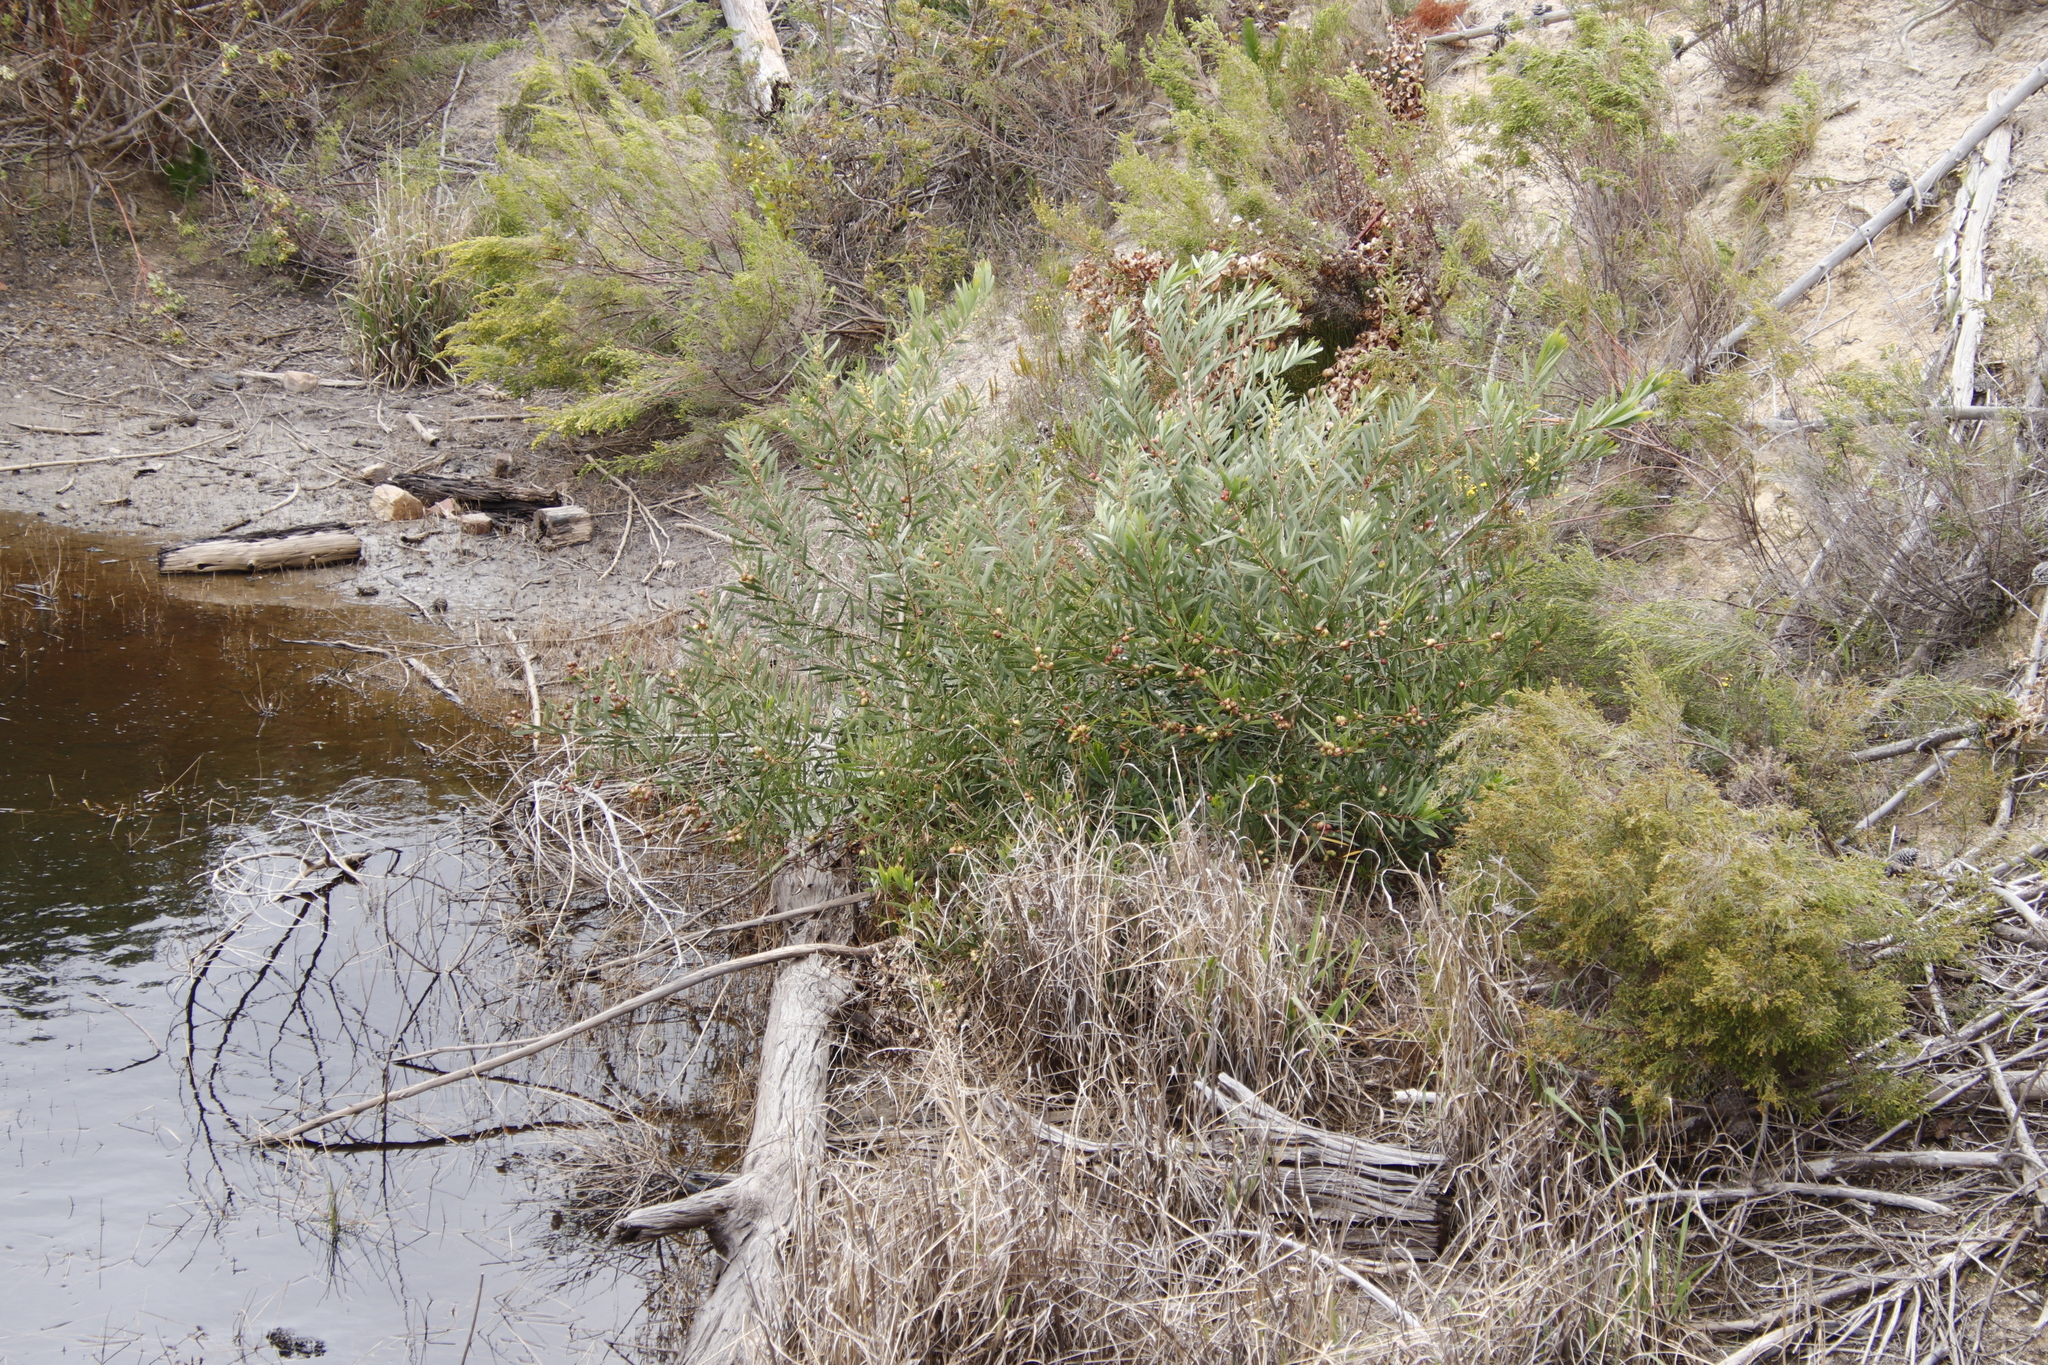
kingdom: Plantae
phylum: Tracheophyta
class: Magnoliopsida
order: Fabales
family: Fabaceae
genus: Acacia
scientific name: Acacia longifolia
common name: Sydney golden wattle
